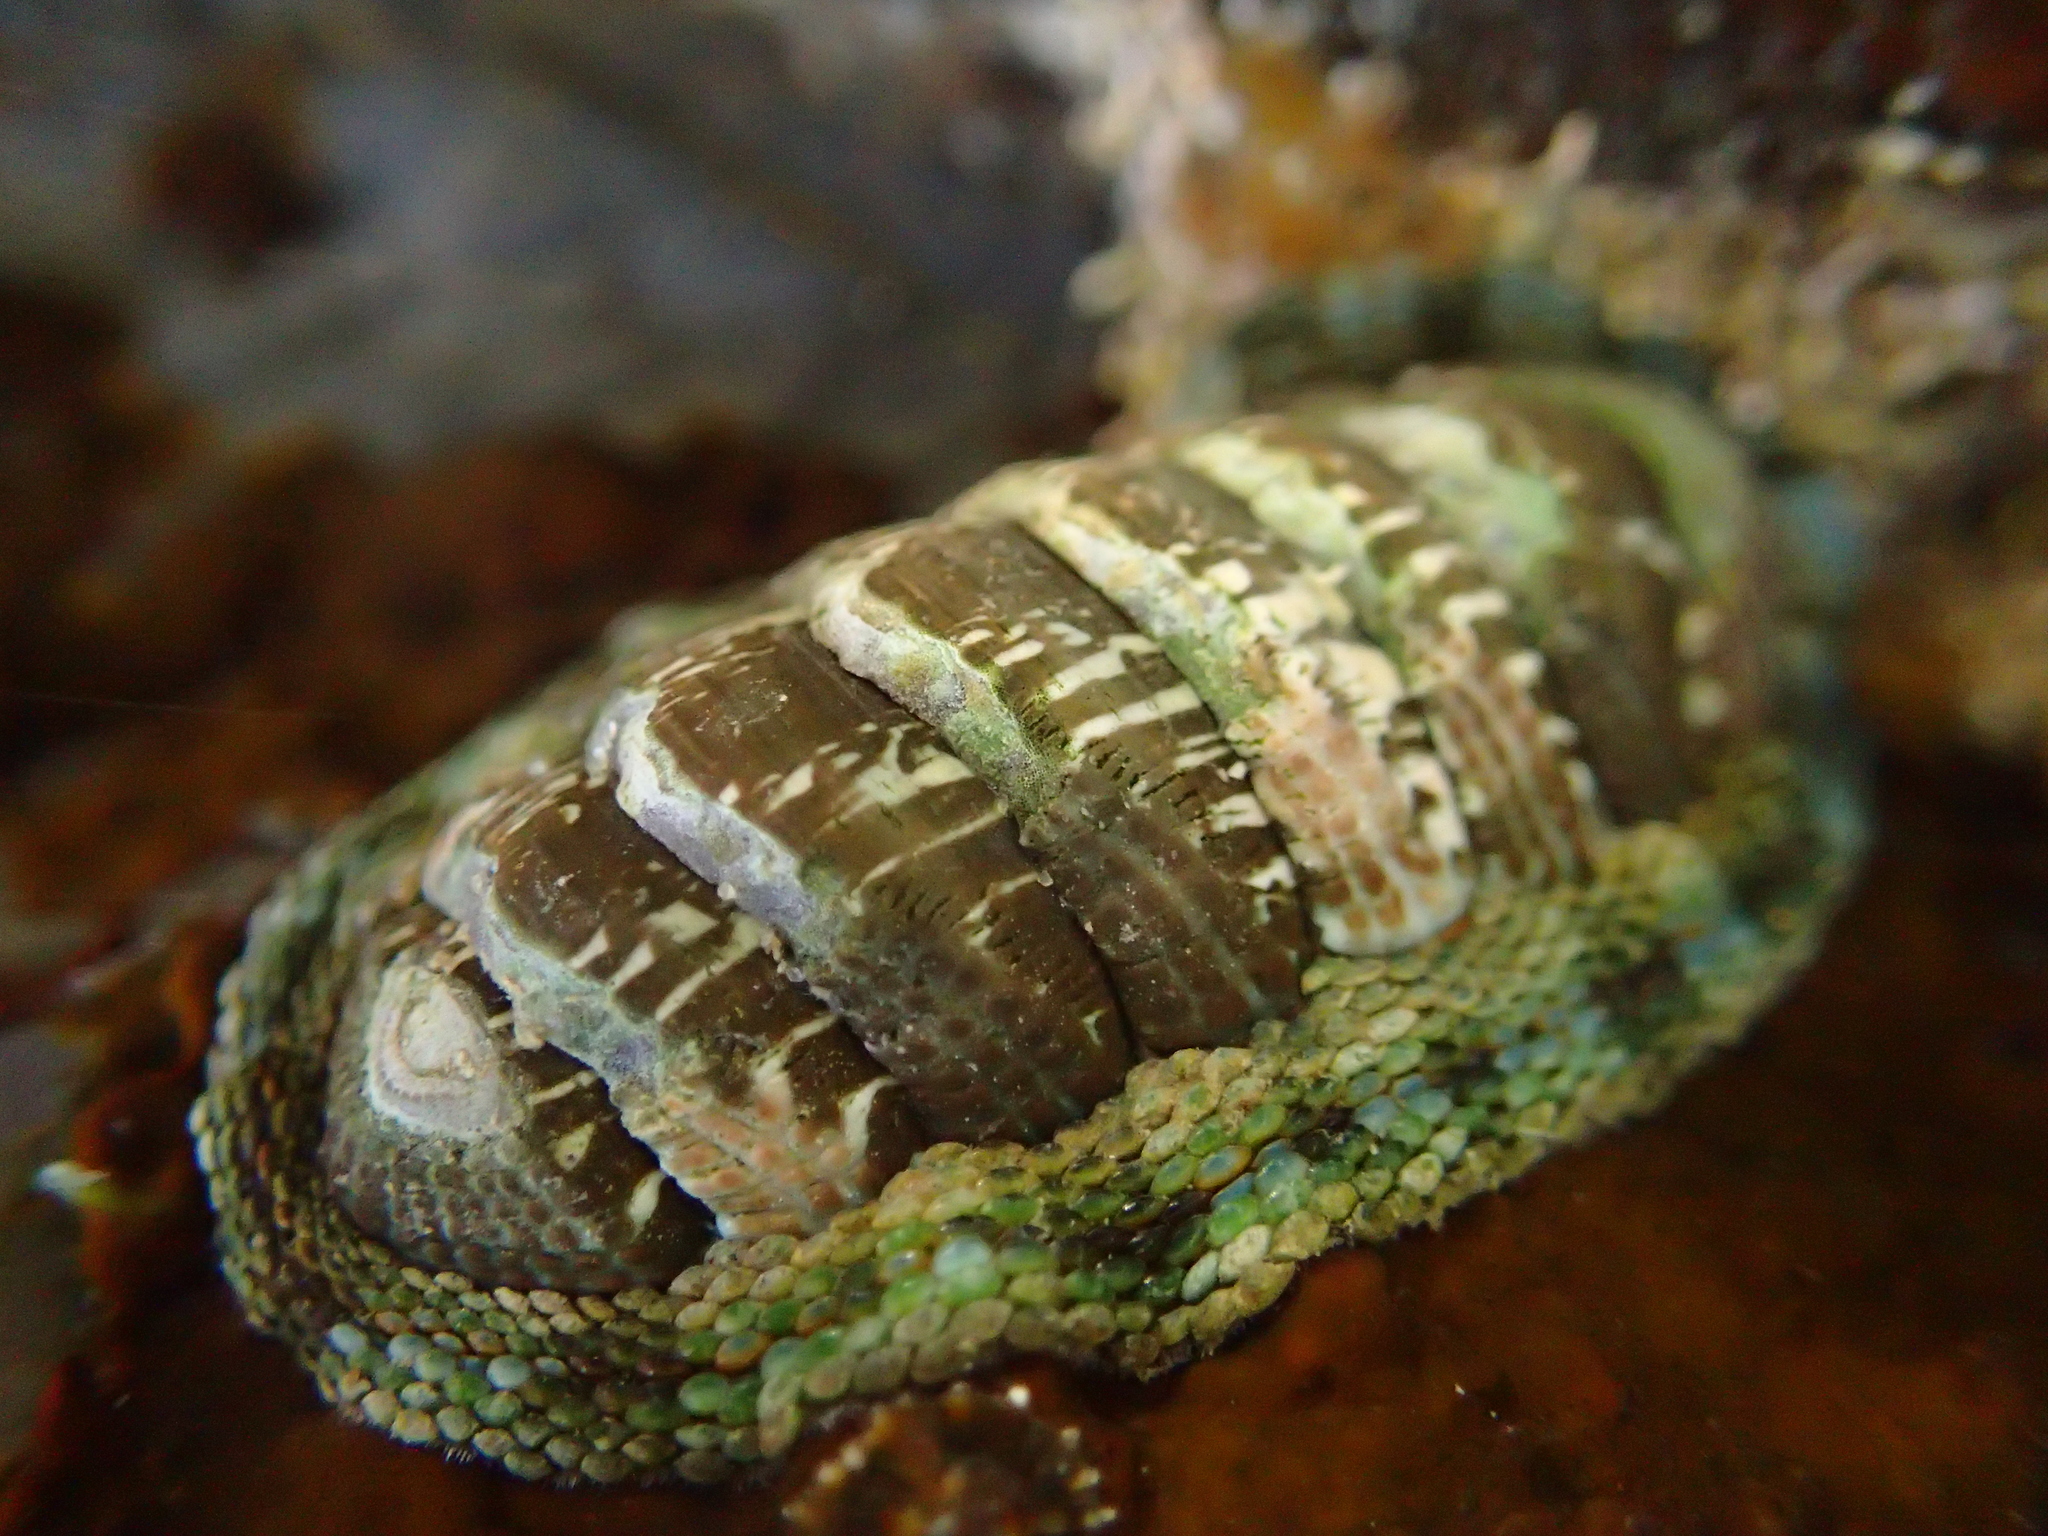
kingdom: Animalia
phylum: Mollusca
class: Polyplacophora
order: Chitonida
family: Chitonidae
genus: Sypharochiton
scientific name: Sypharochiton sinclairi
